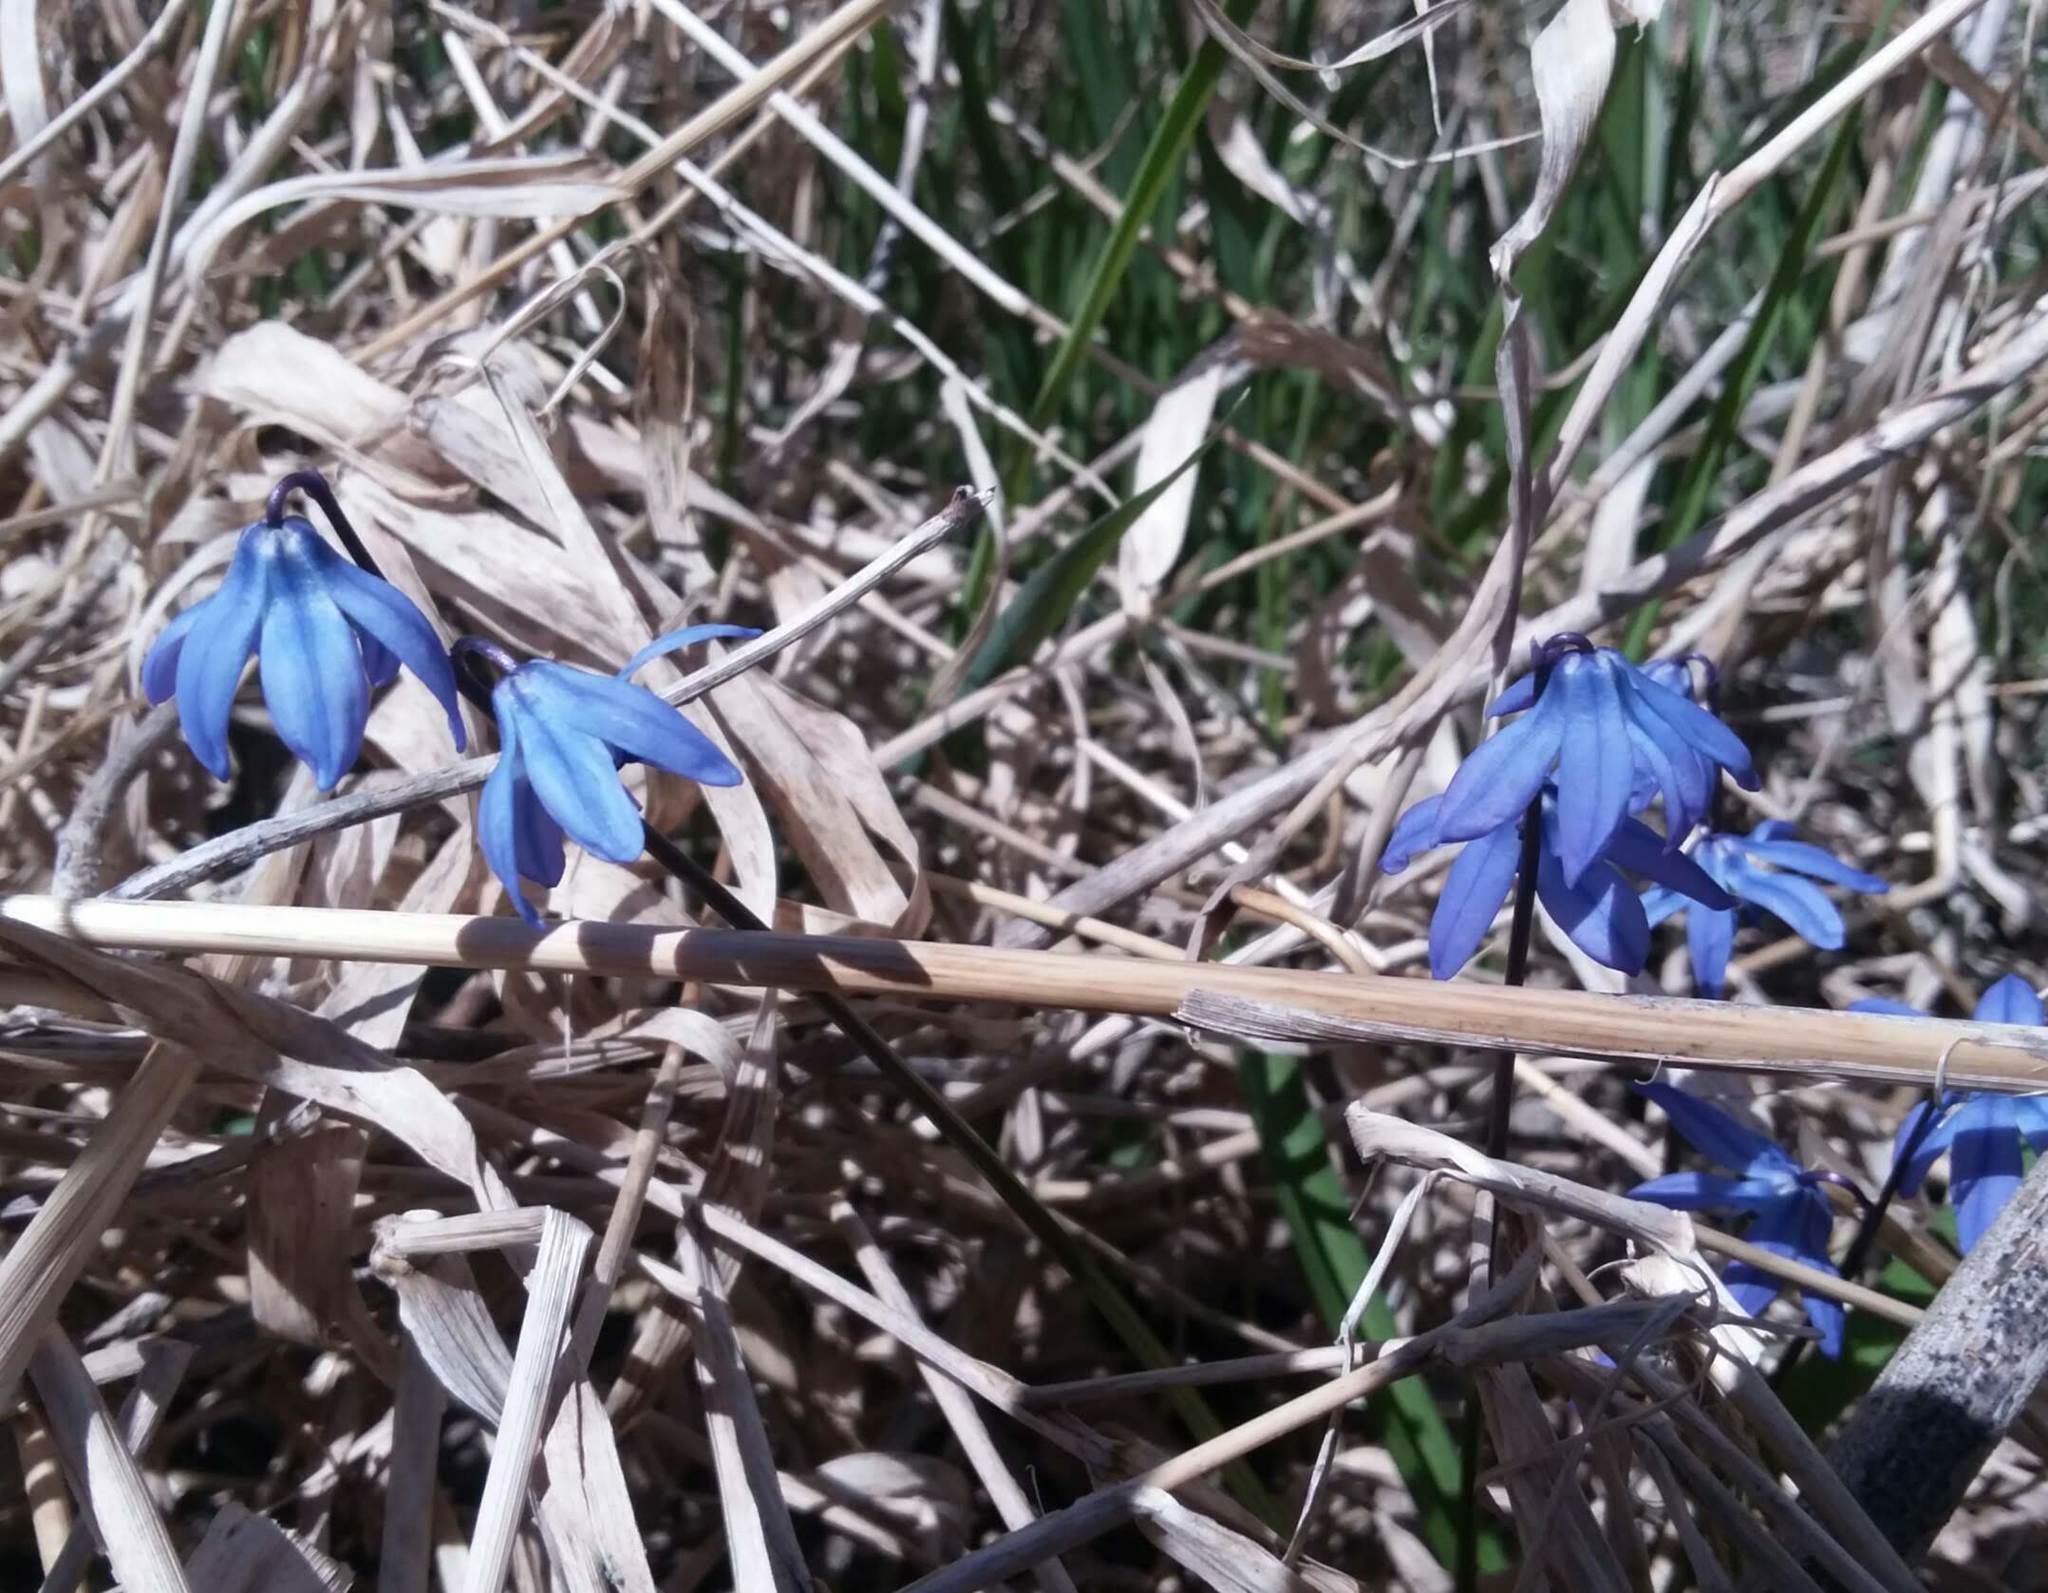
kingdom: Plantae
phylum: Tracheophyta
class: Liliopsida
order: Asparagales
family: Asparagaceae
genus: Scilla
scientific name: Scilla siberica
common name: Siberian squill
